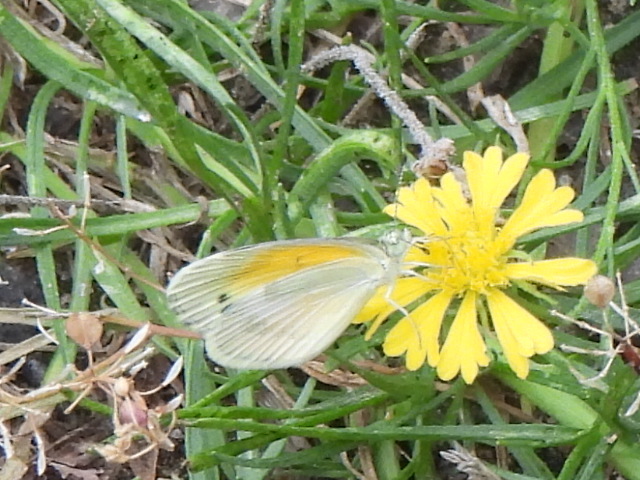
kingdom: Animalia
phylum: Arthropoda
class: Insecta
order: Lepidoptera
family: Pieridae
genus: Nathalis
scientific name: Nathalis iole
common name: Dainty sulphur
